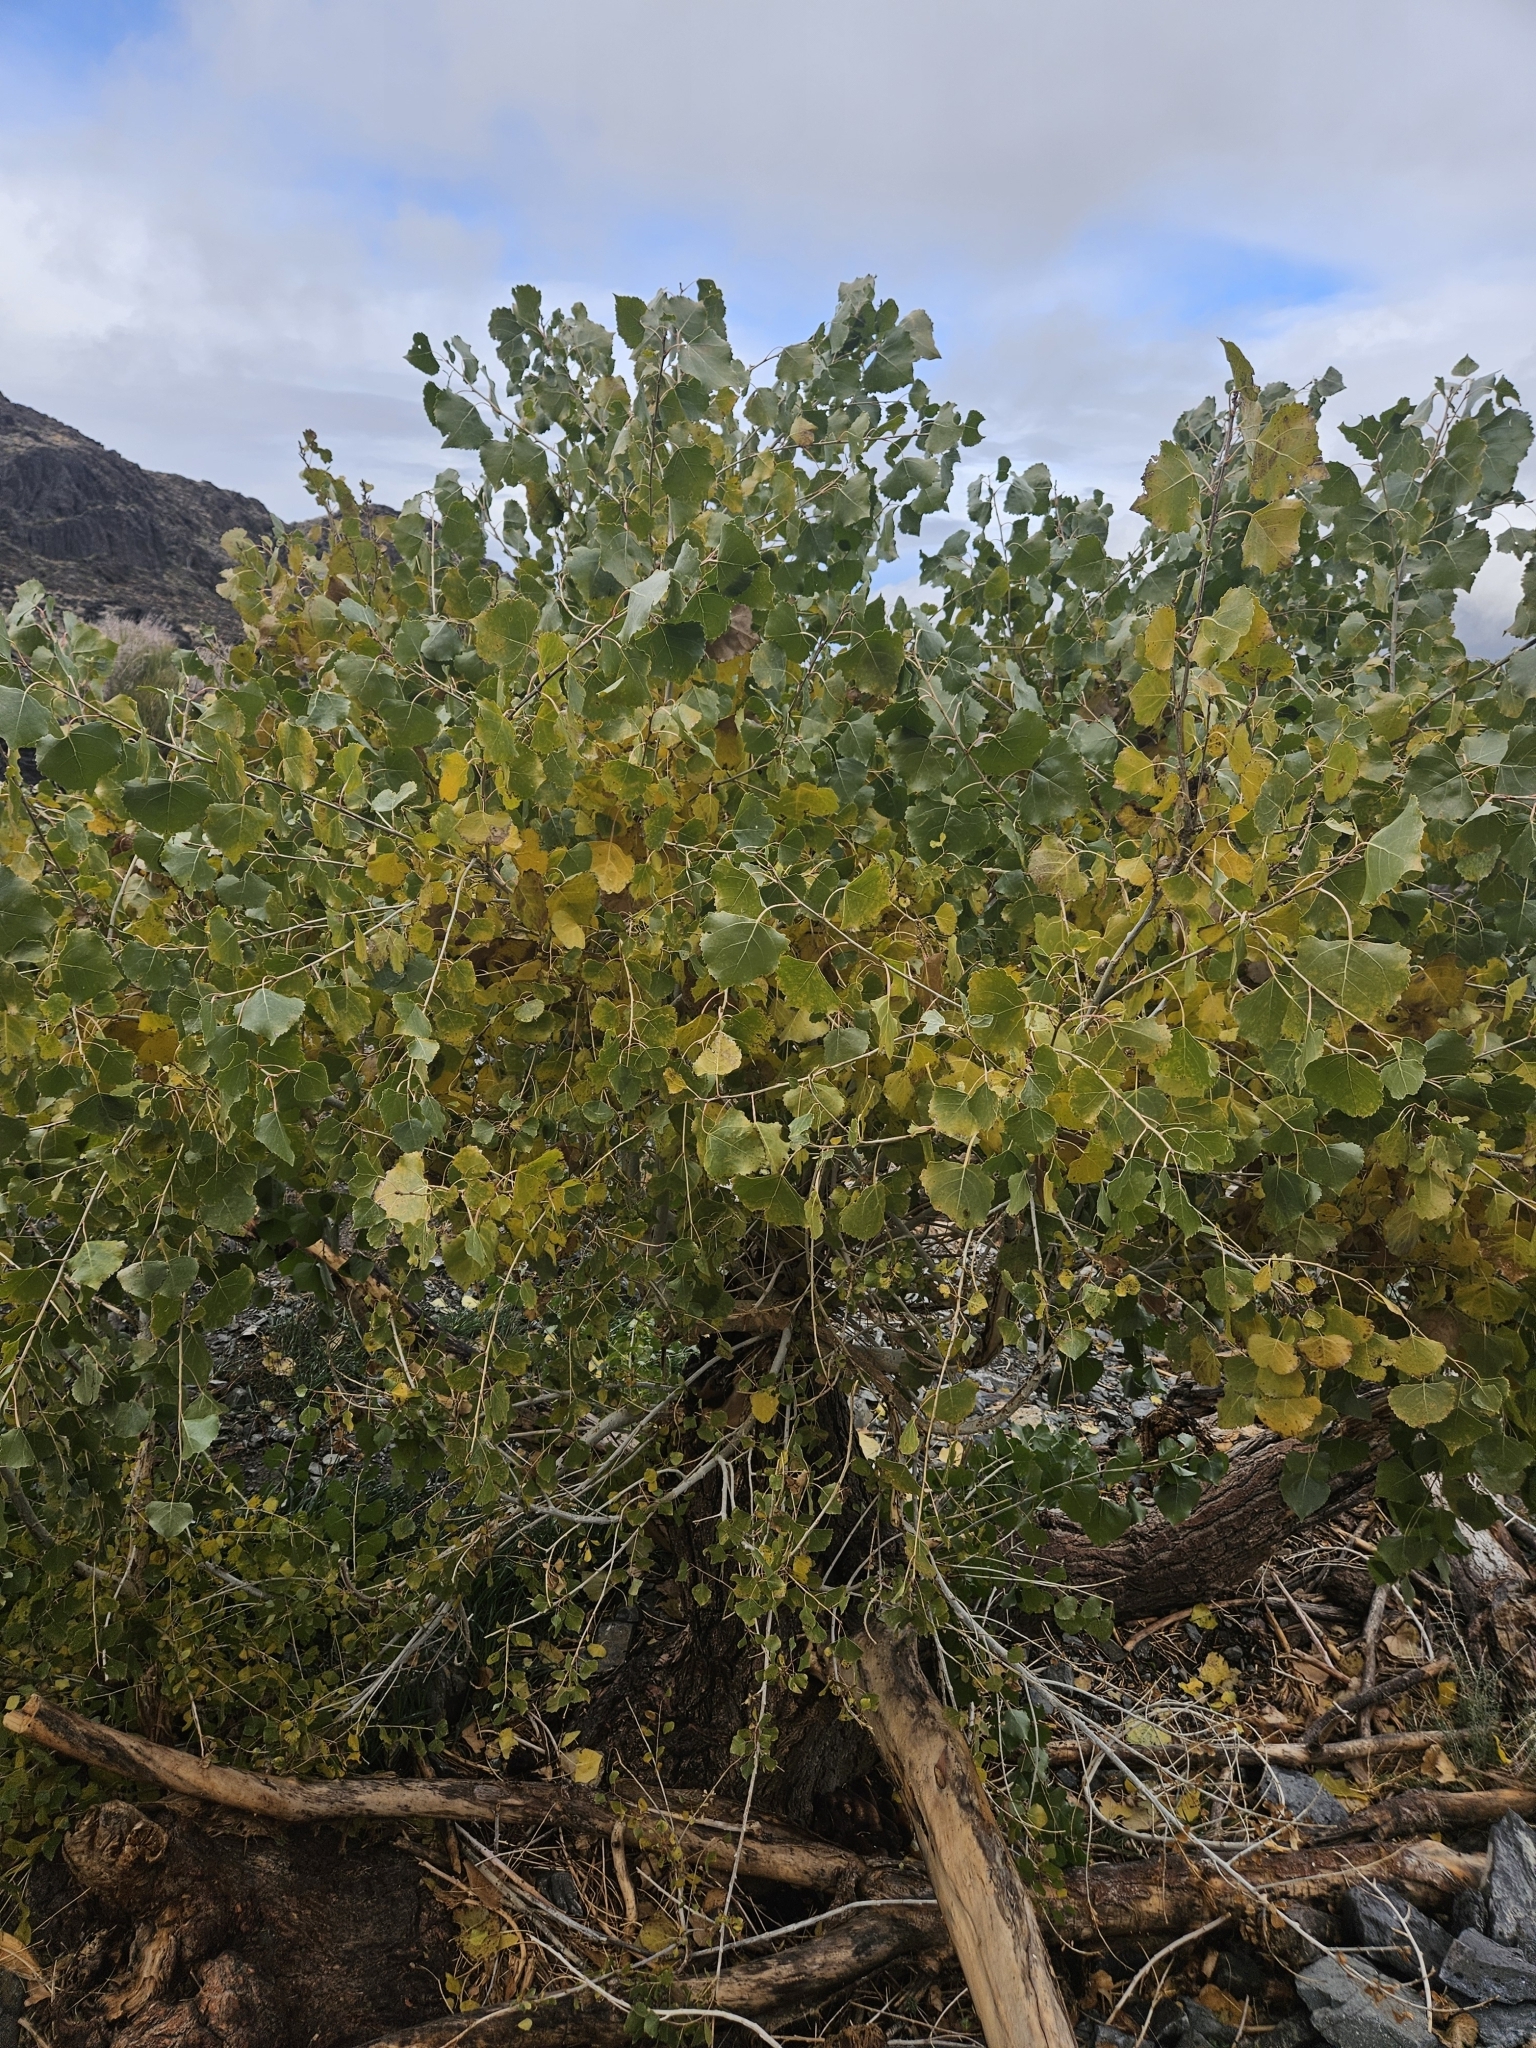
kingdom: Plantae
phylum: Tracheophyta
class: Magnoliopsida
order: Malpighiales
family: Salicaceae
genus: Populus
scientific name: Populus fremontii
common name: Fremont's cottonwood
